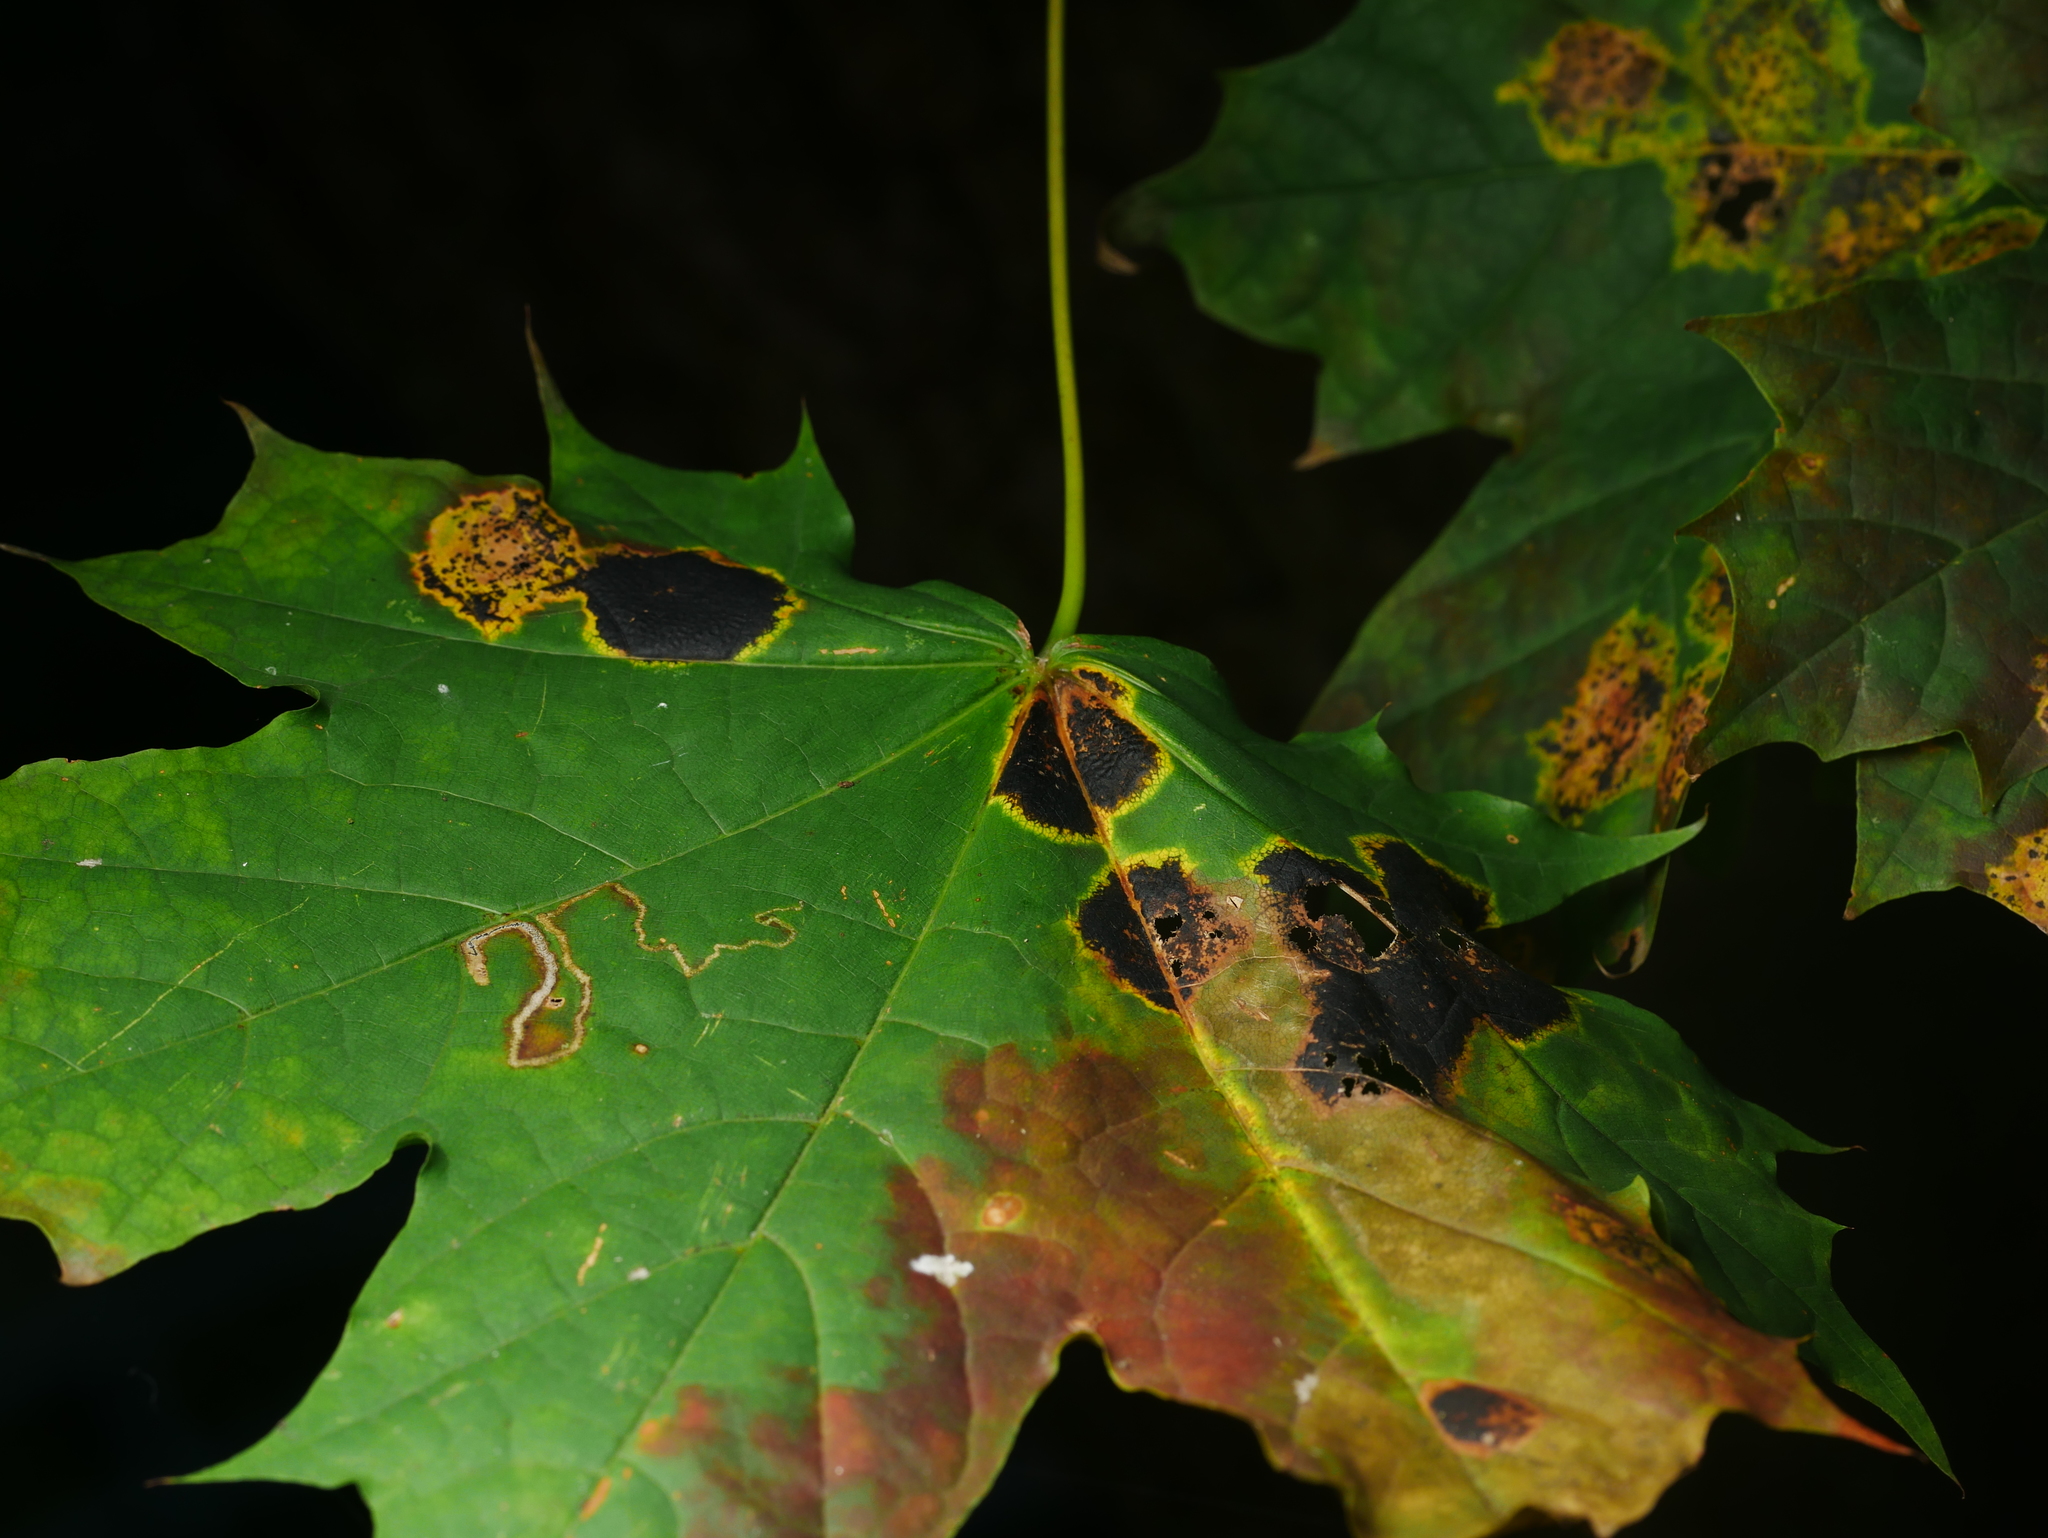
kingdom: Plantae
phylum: Tracheophyta
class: Magnoliopsida
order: Sapindales
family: Sapindaceae
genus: Acer
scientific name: Acer platanoides
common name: Norway maple
